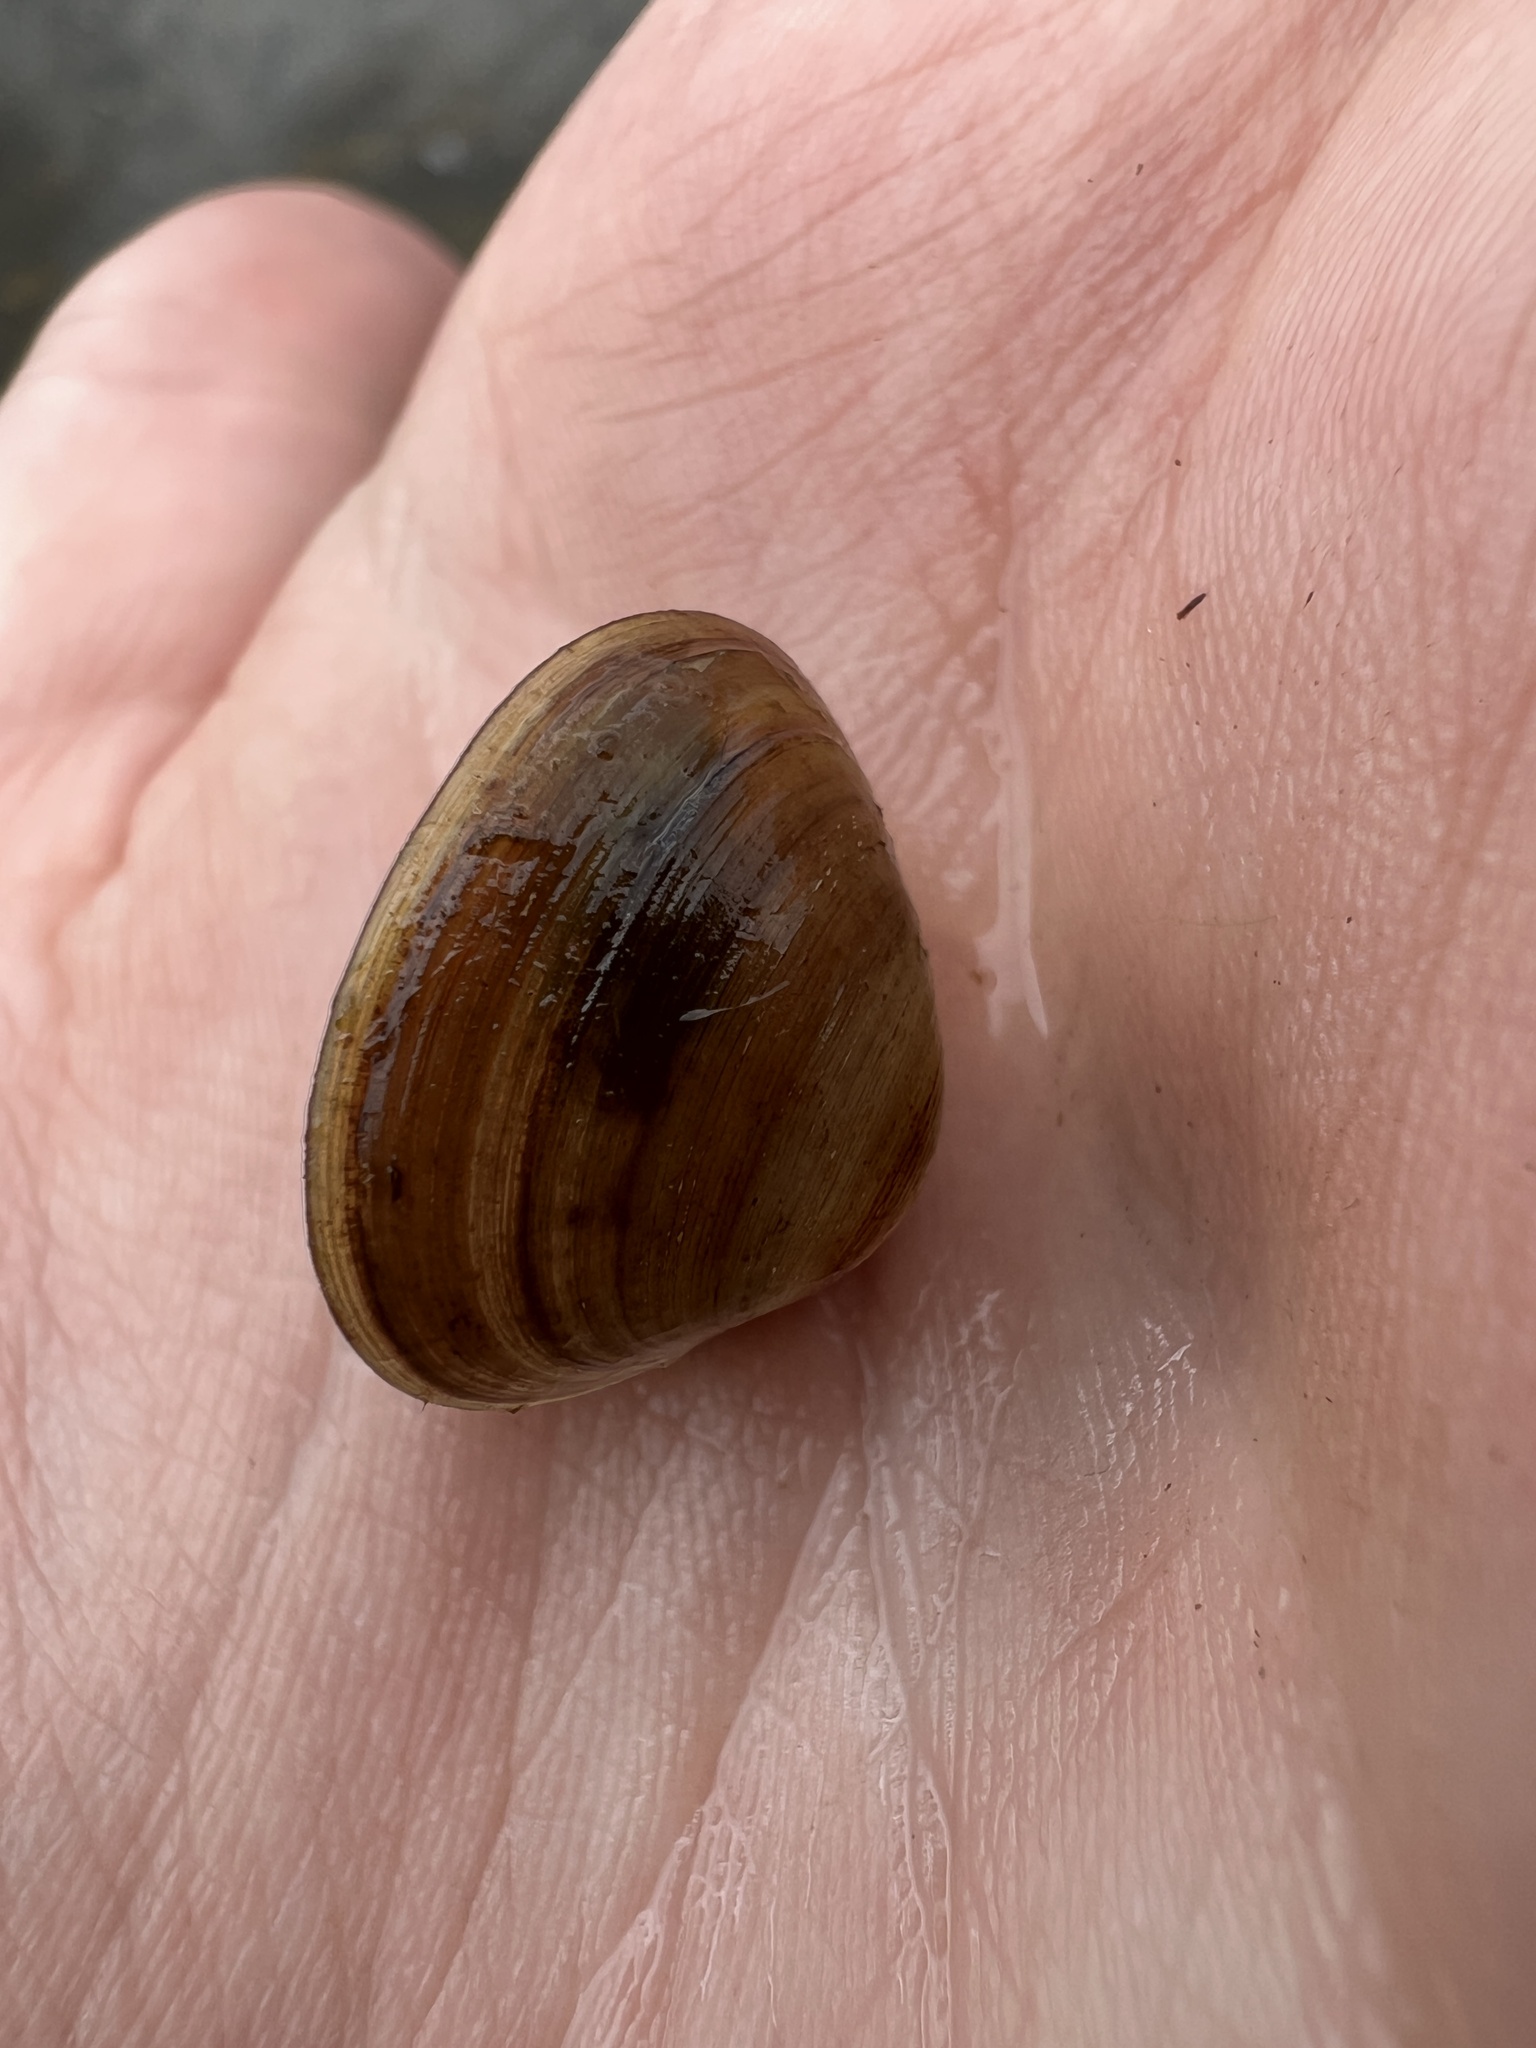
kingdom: Animalia
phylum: Mollusca
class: Bivalvia
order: Sphaeriida
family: Sphaeriidae
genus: Sphaerium
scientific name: Sphaerium simile
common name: Grooved fingernailclam
